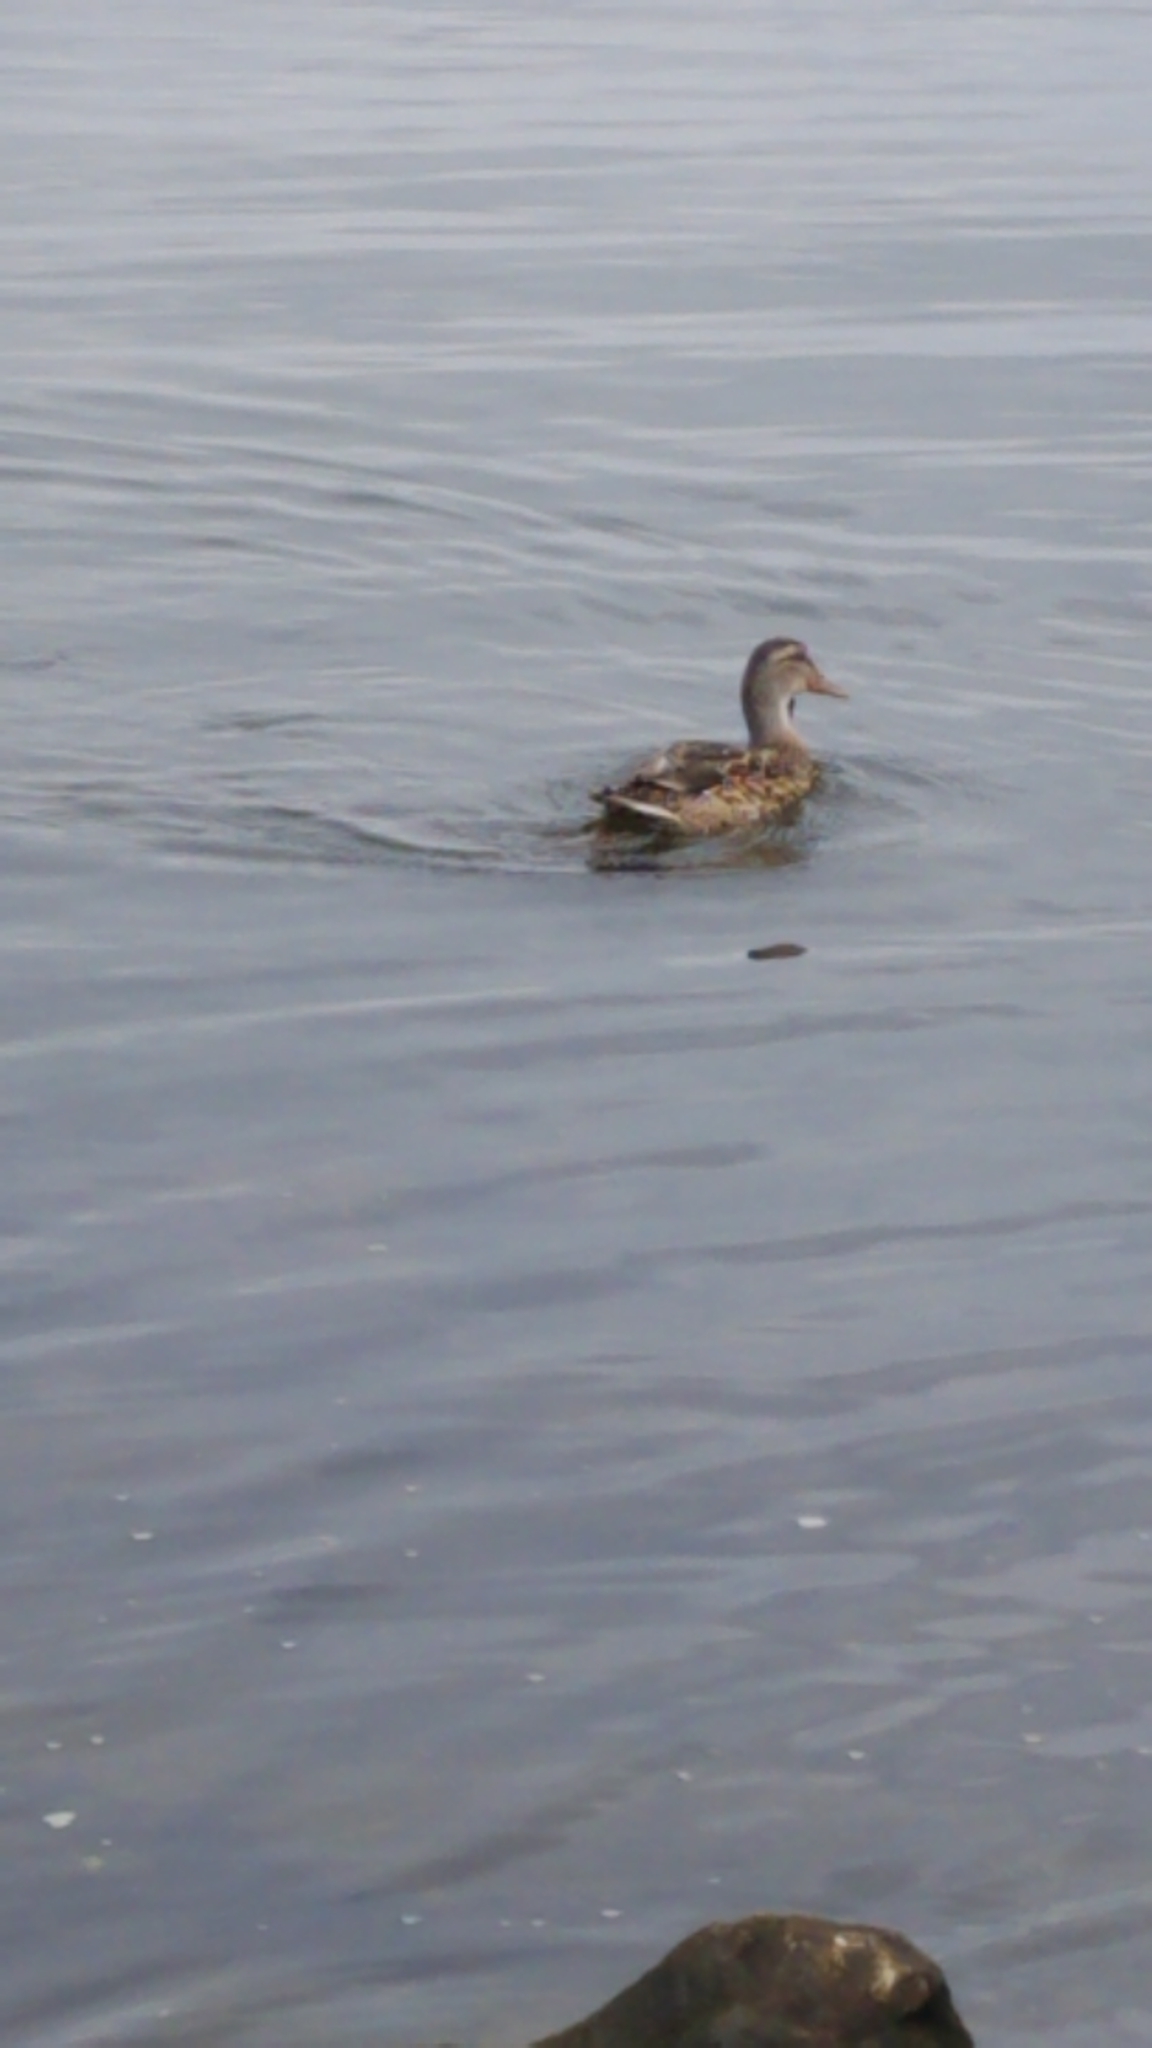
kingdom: Animalia
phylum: Chordata
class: Aves
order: Anseriformes
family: Anatidae
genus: Anas
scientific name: Anas platyrhynchos
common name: Mallard
